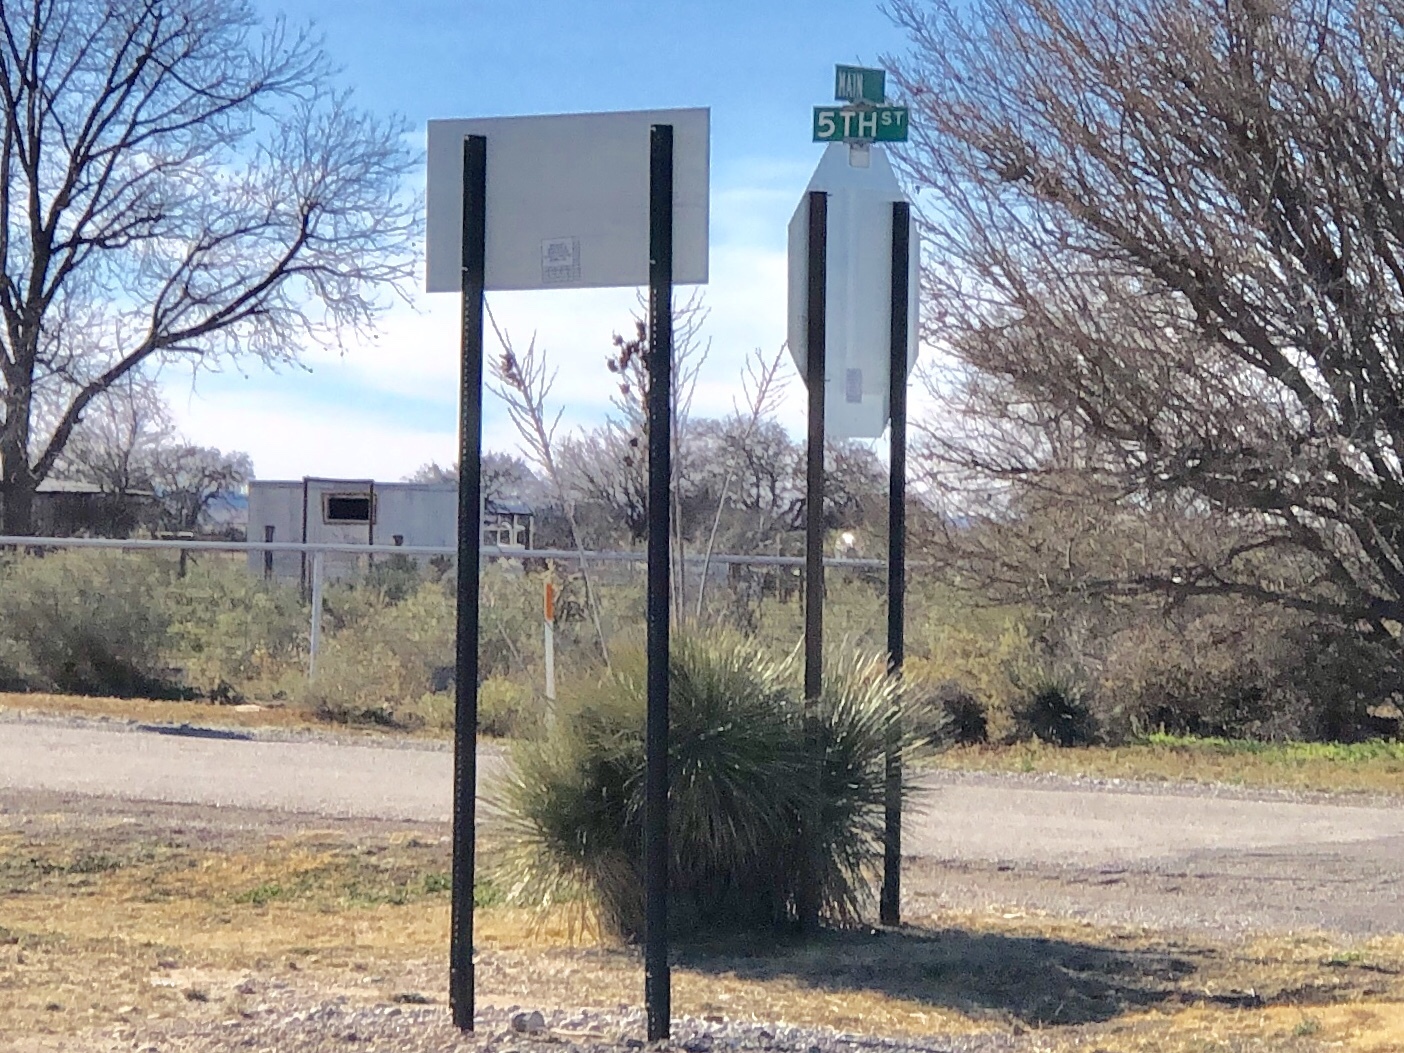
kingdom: Plantae
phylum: Tracheophyta
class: Liliopsida
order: Asparagales
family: Asparagaceae
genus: Yucca
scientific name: Yucca elata
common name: Palmella
